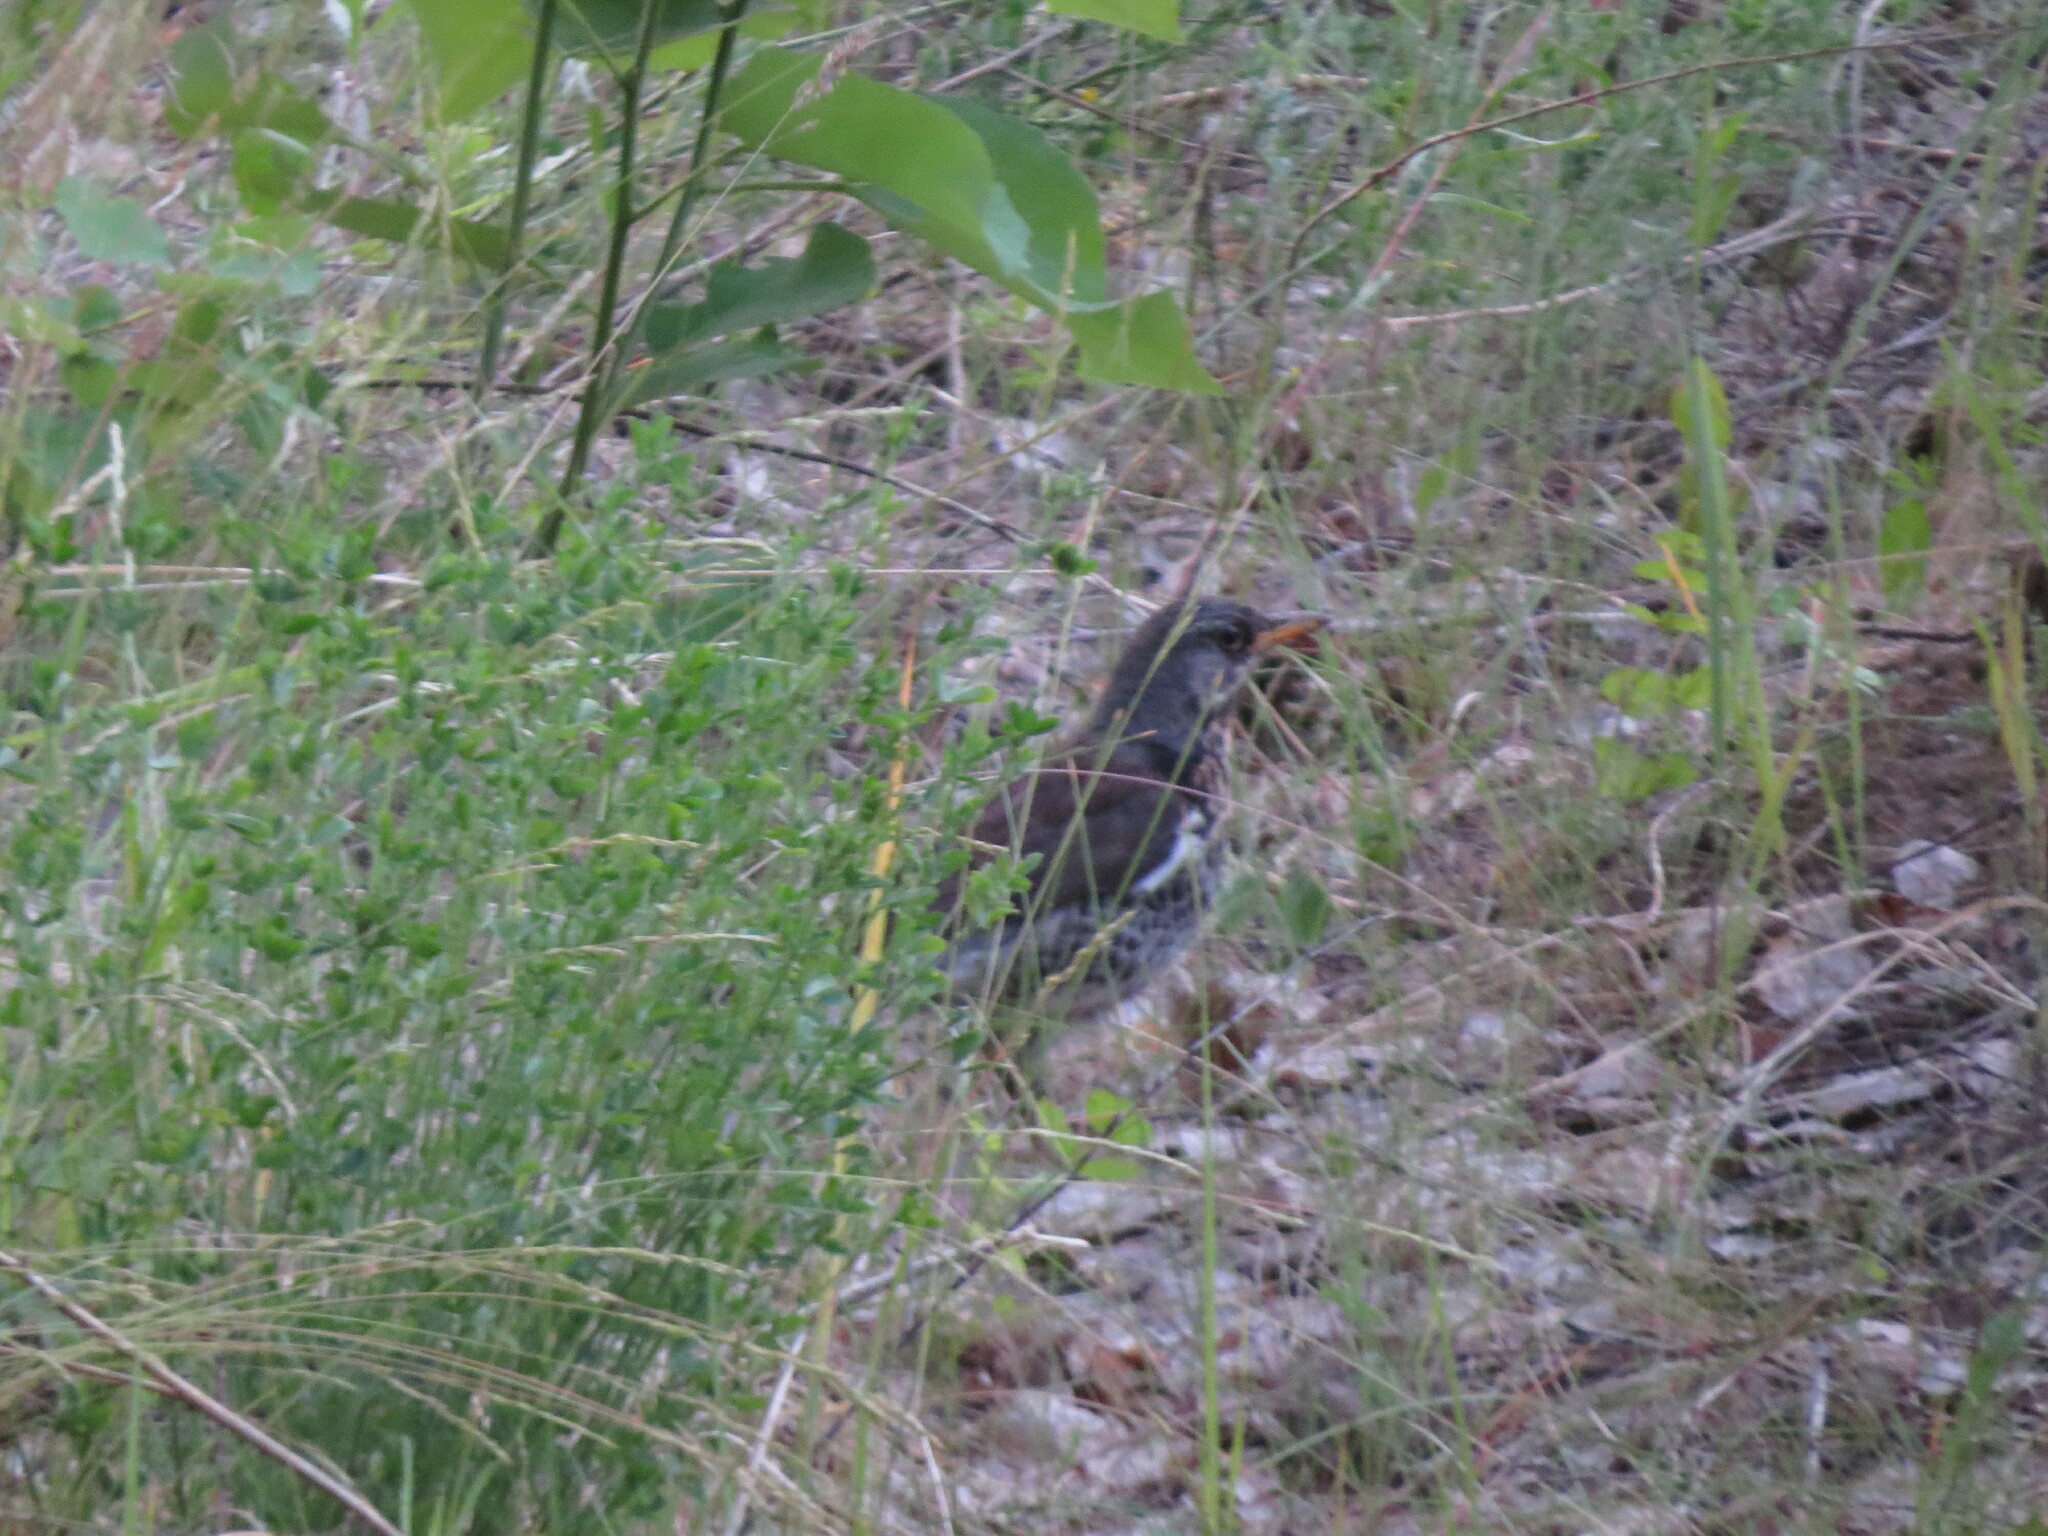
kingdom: Animalia
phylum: Chordata
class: Aves
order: Passeriformes
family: Turdidae
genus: Turdus
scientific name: Turdus pilaris
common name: Fieldfare
